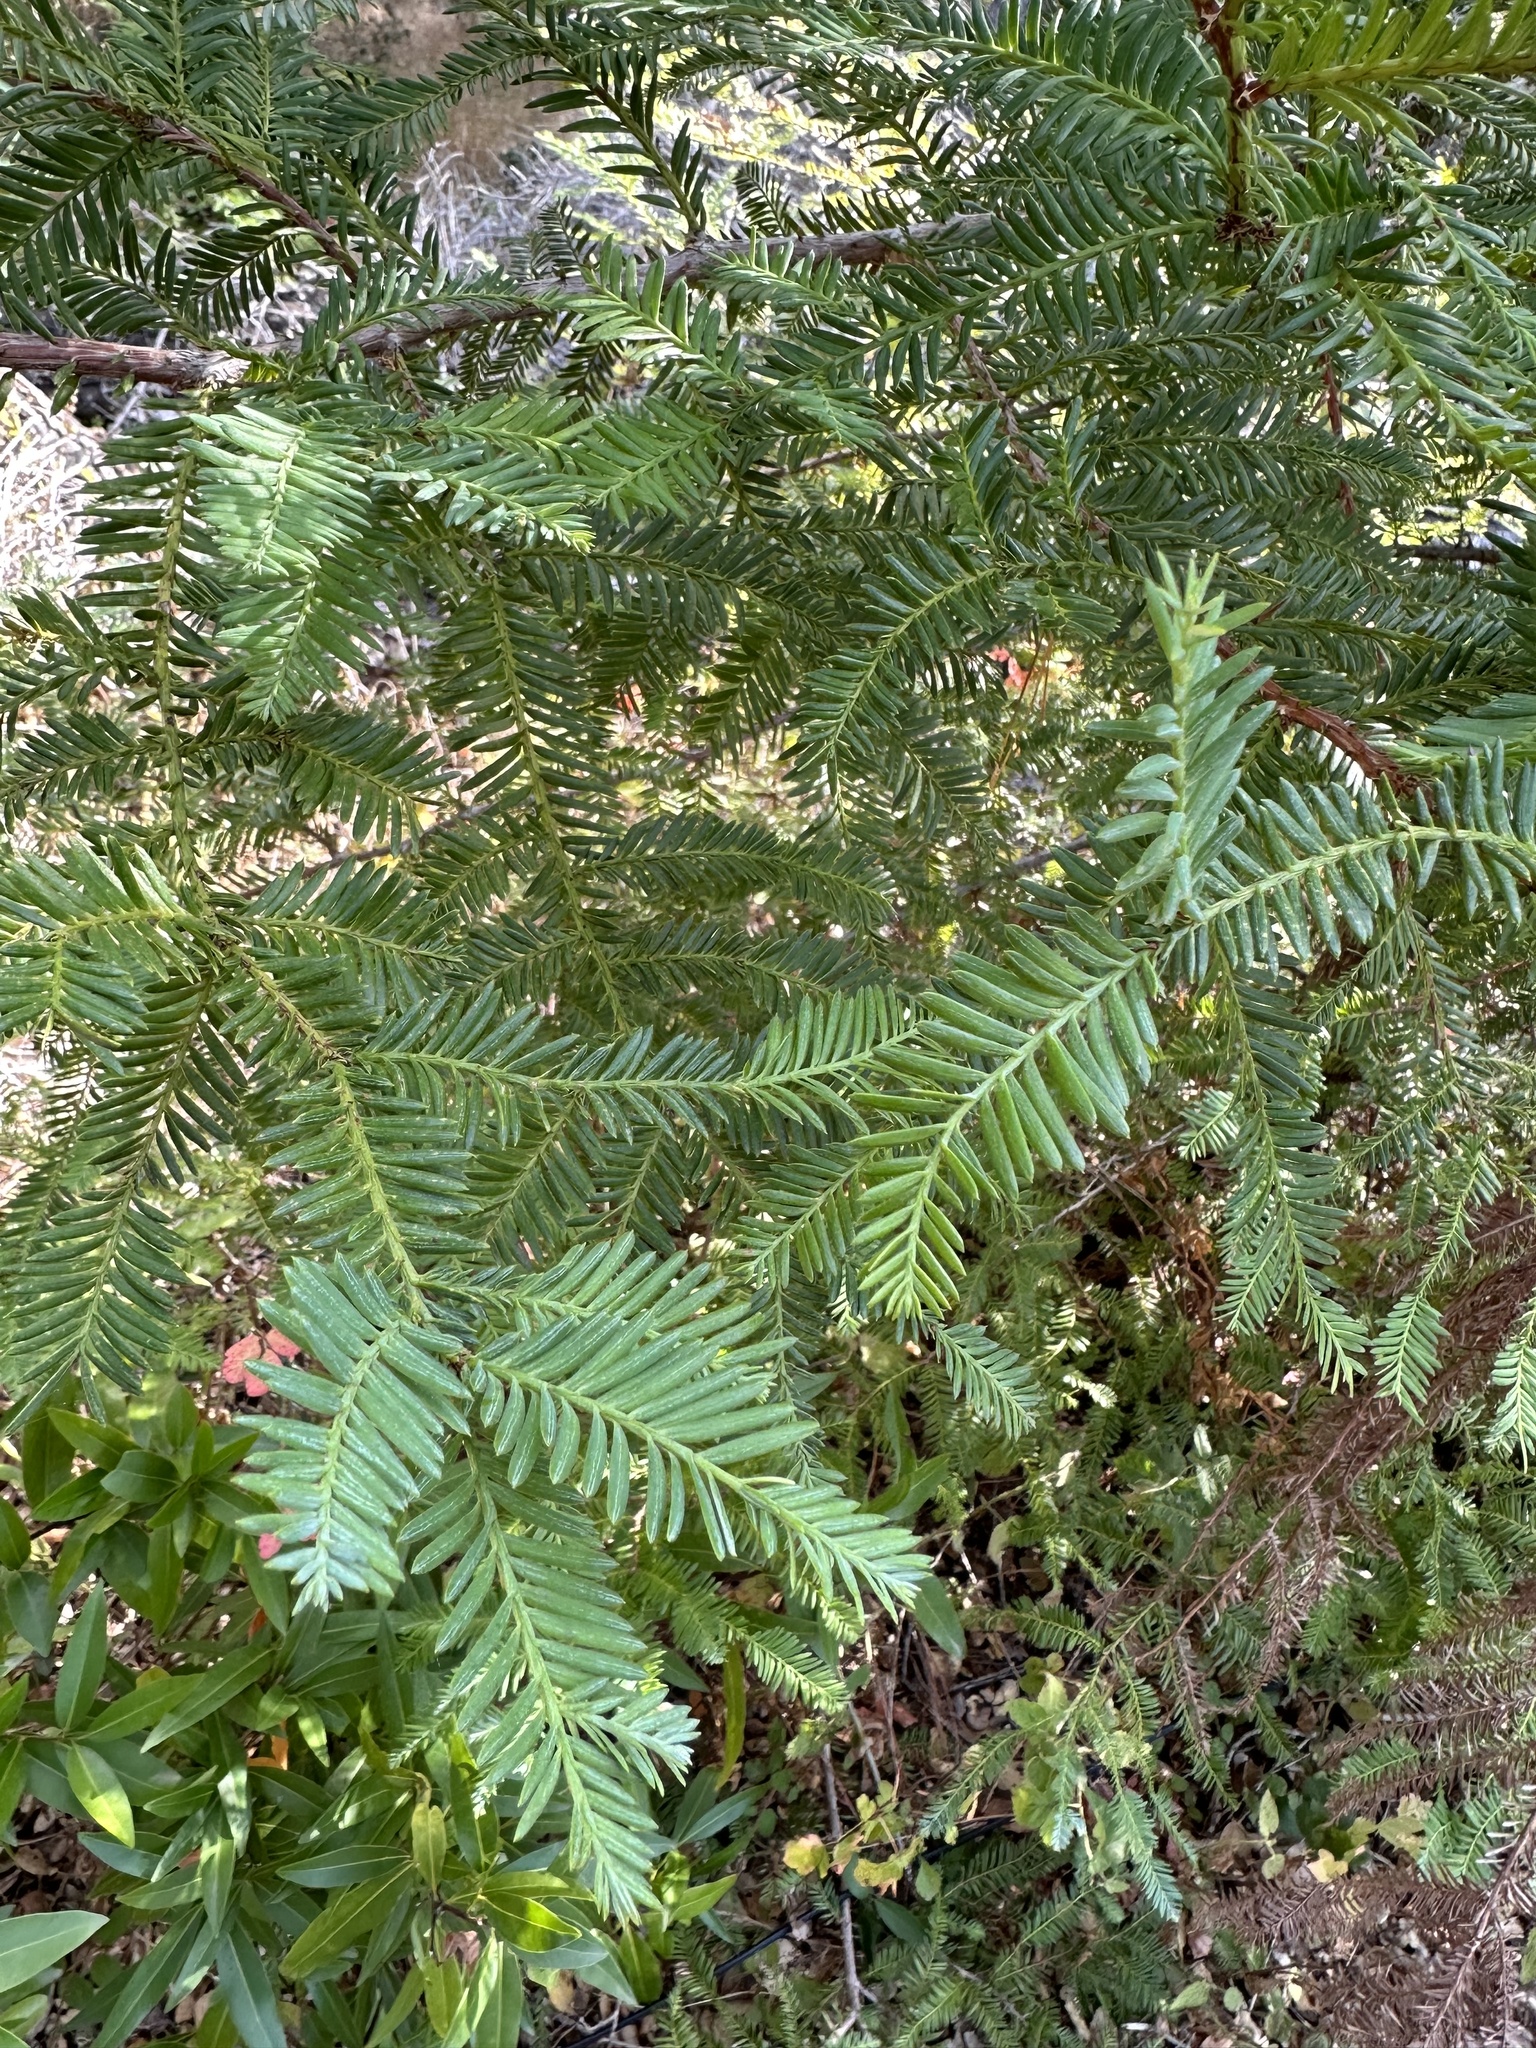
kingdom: Plantae
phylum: Tracheophyta
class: Pinopsida
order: Pinales
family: Cupressaceae
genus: Sequoia
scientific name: Sequoia sempervirens
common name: Coast redwood
